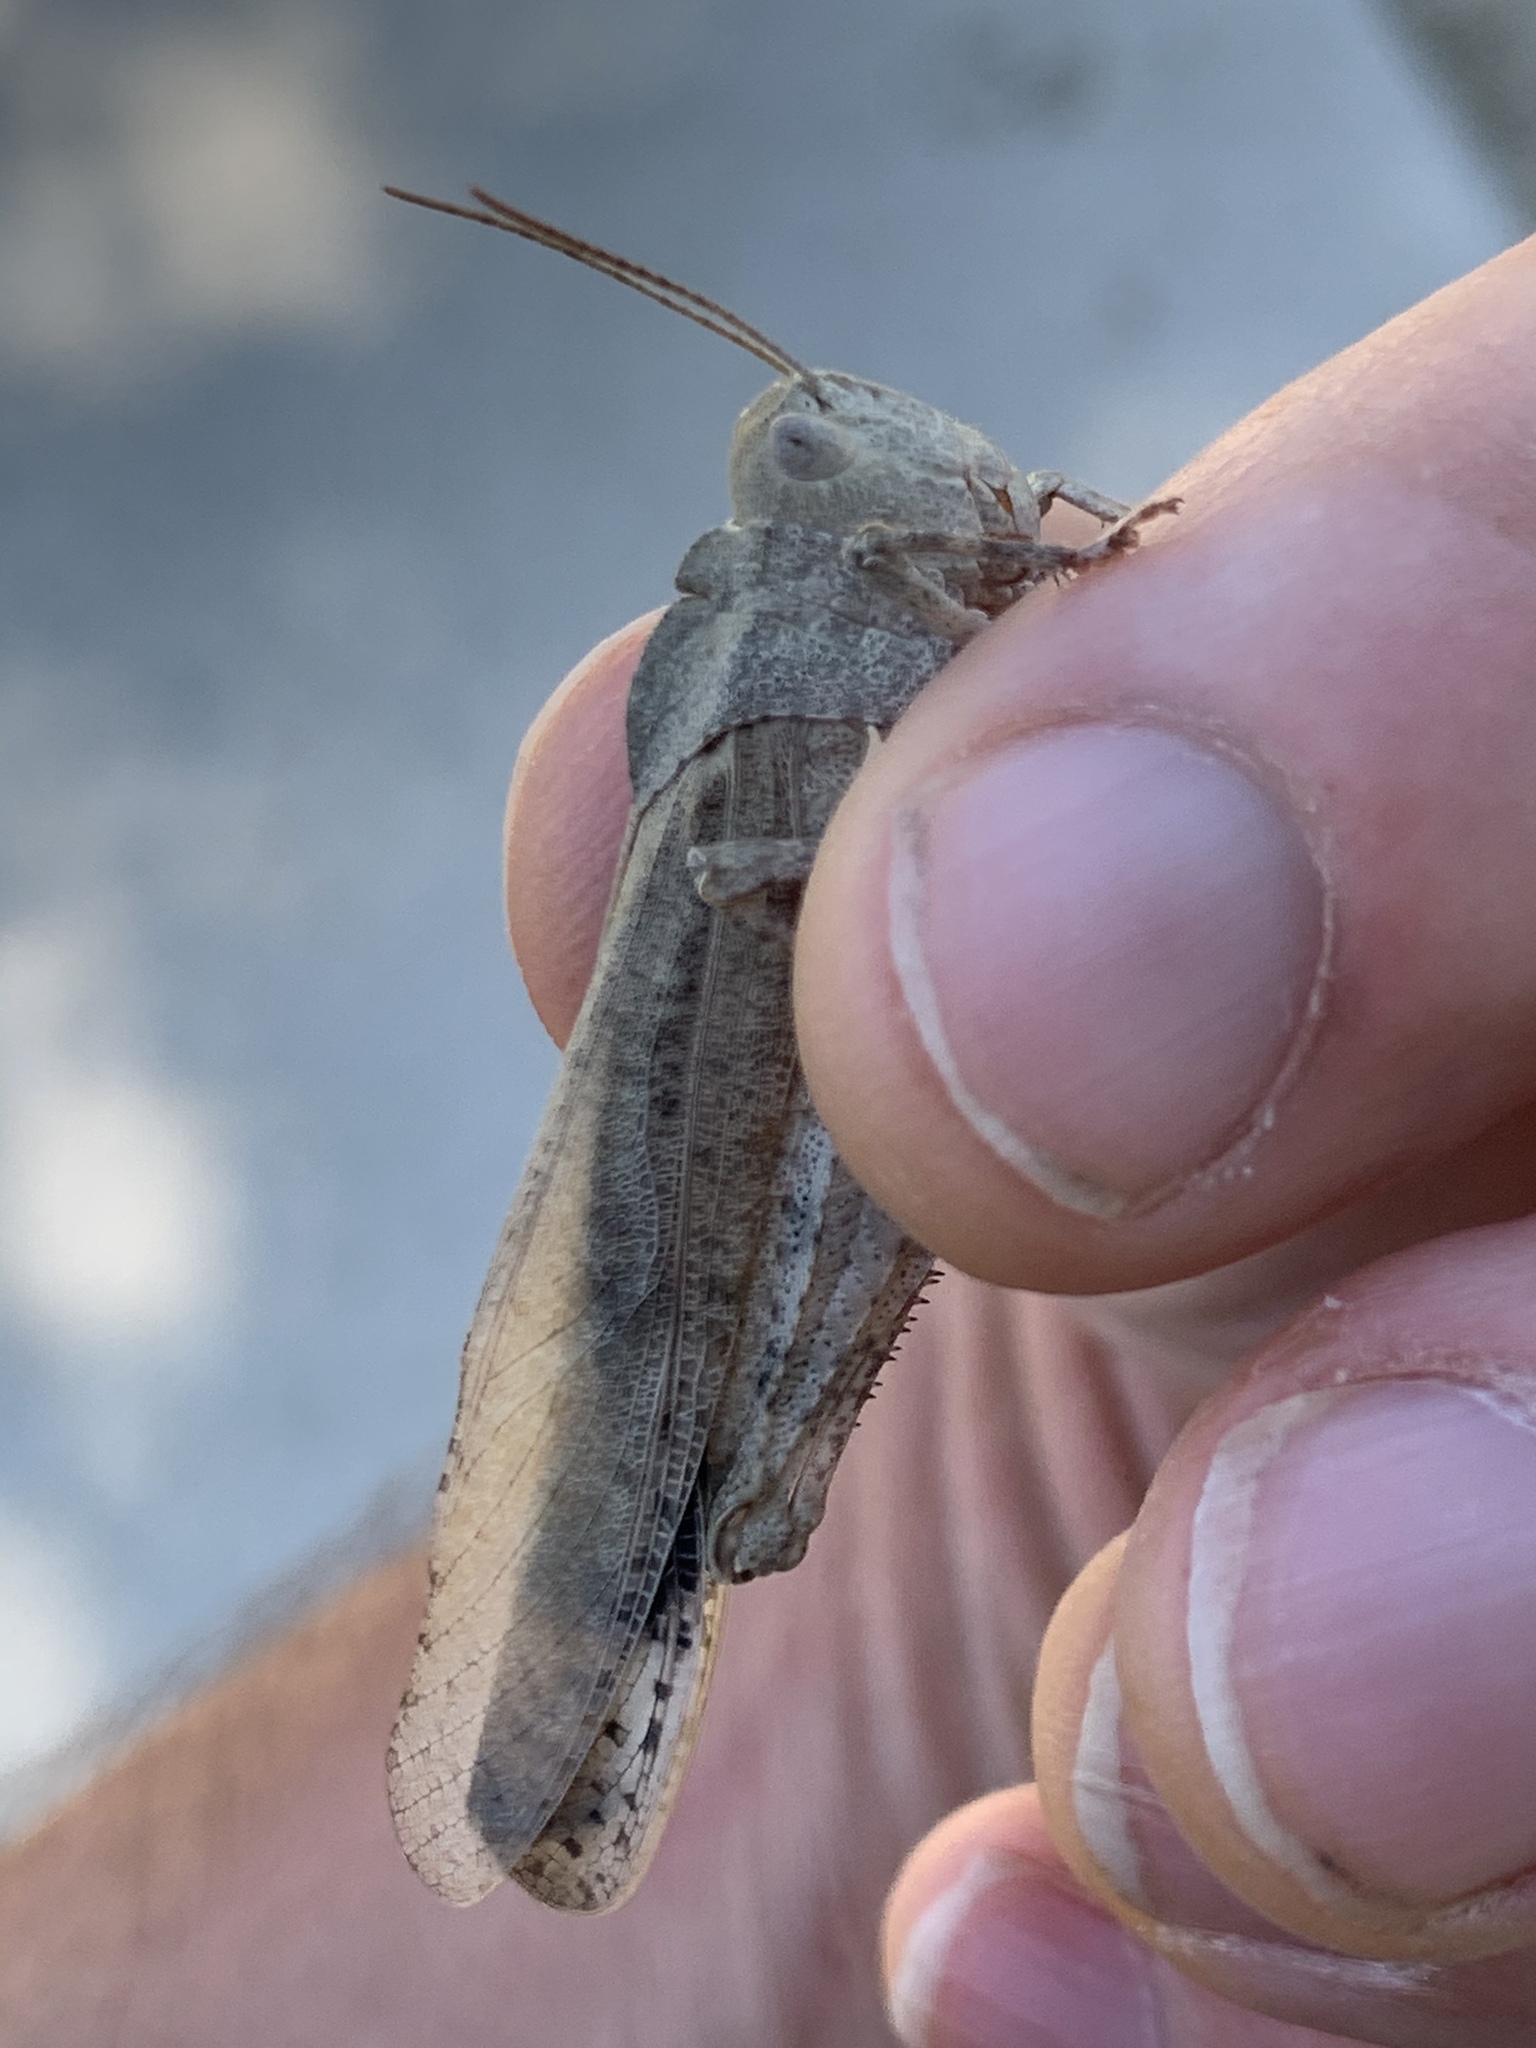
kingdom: Animalia
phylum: Arthropoda
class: Insecta
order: Orthoptera
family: Acrididae
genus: Dissosteira
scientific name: Dissosteira carolina
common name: Carolina grasshopper
